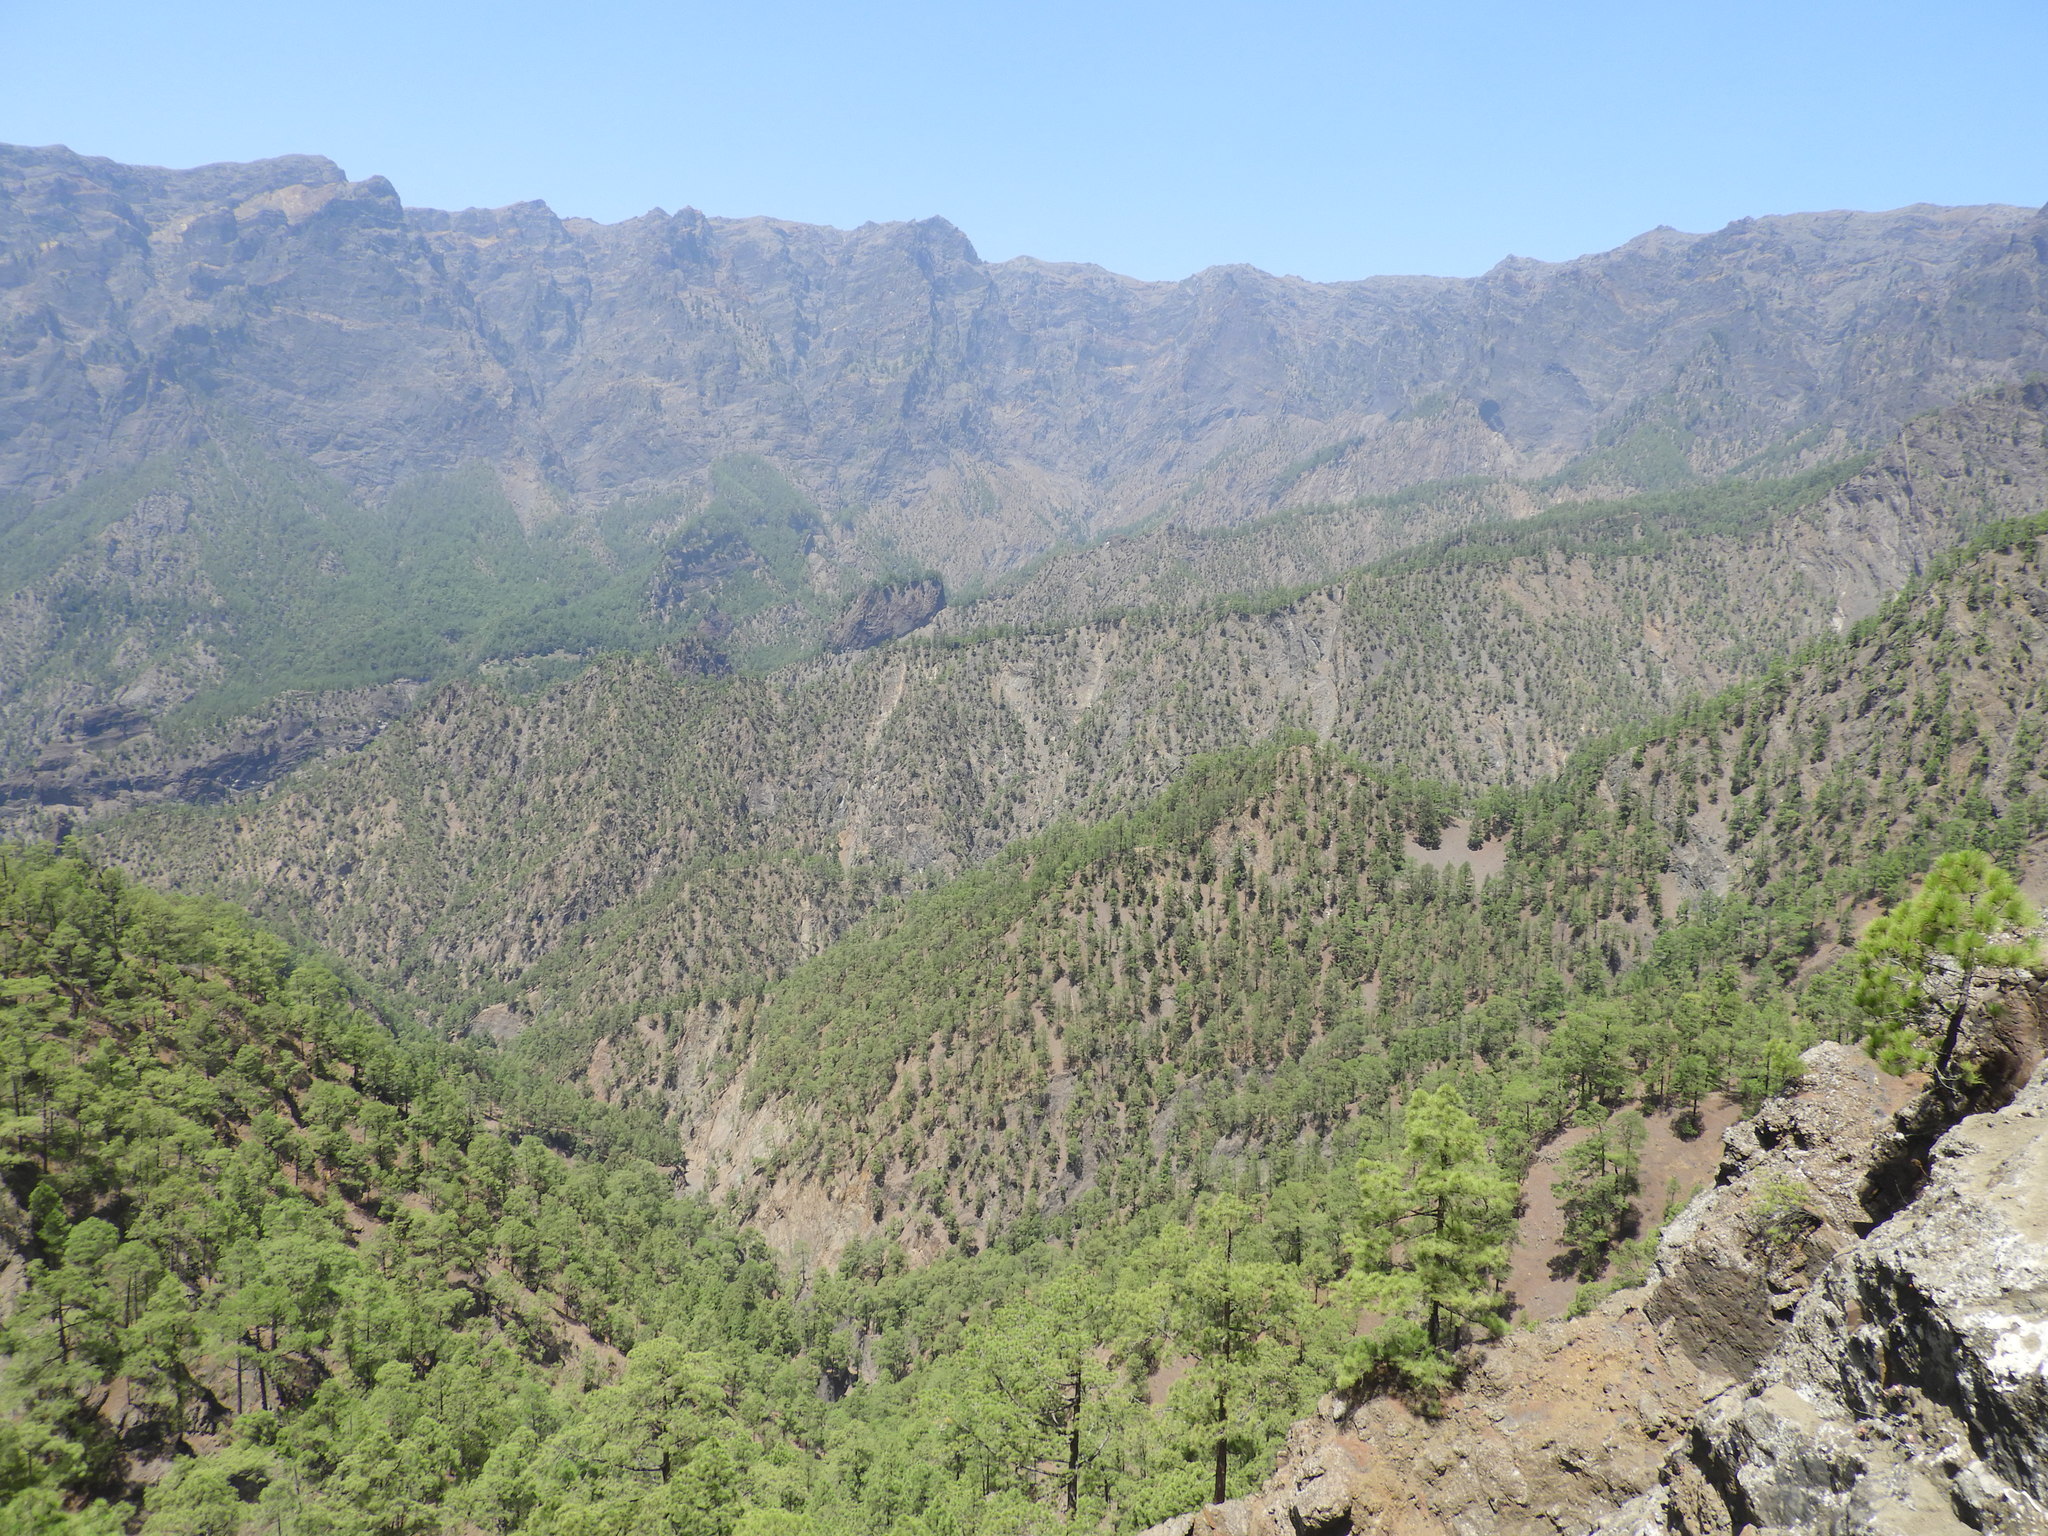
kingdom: Plantae
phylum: Tracheophyta
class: Pinopsida
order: Pinales
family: Pinaceae
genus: Pinus
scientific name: Pinus canariensis
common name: Canary islands pine
